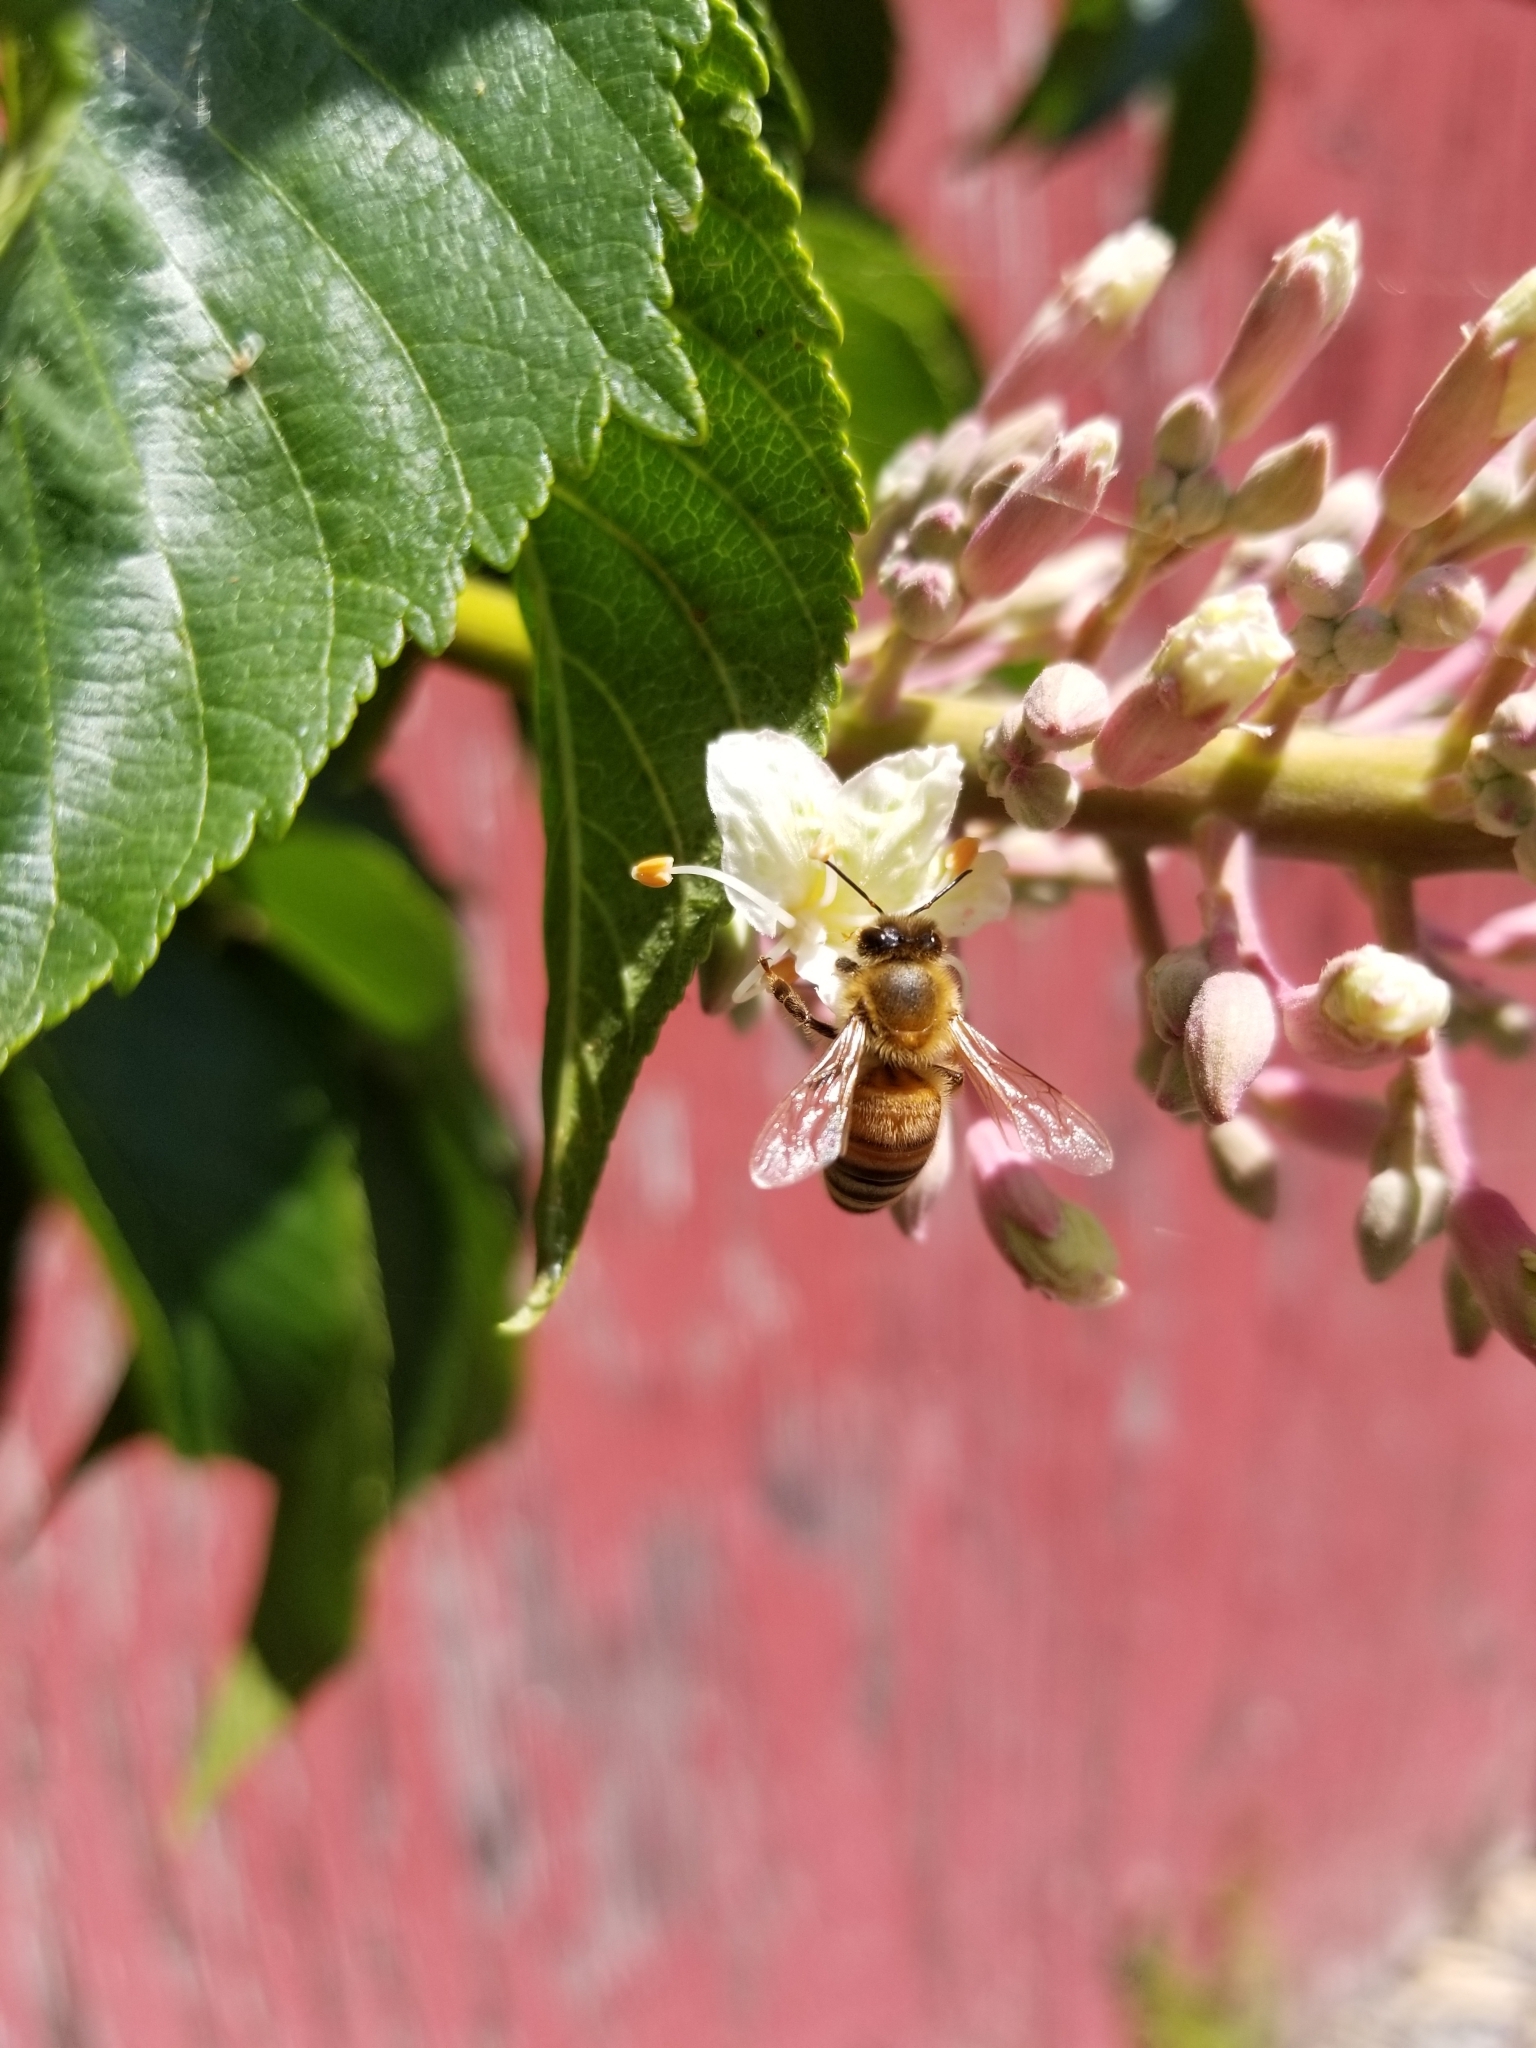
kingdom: Animalia
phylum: Arthropoda
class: Insecta
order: Hymenoptera
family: Apidae
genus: Apis
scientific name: Apis mellifera
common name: Honey bee
